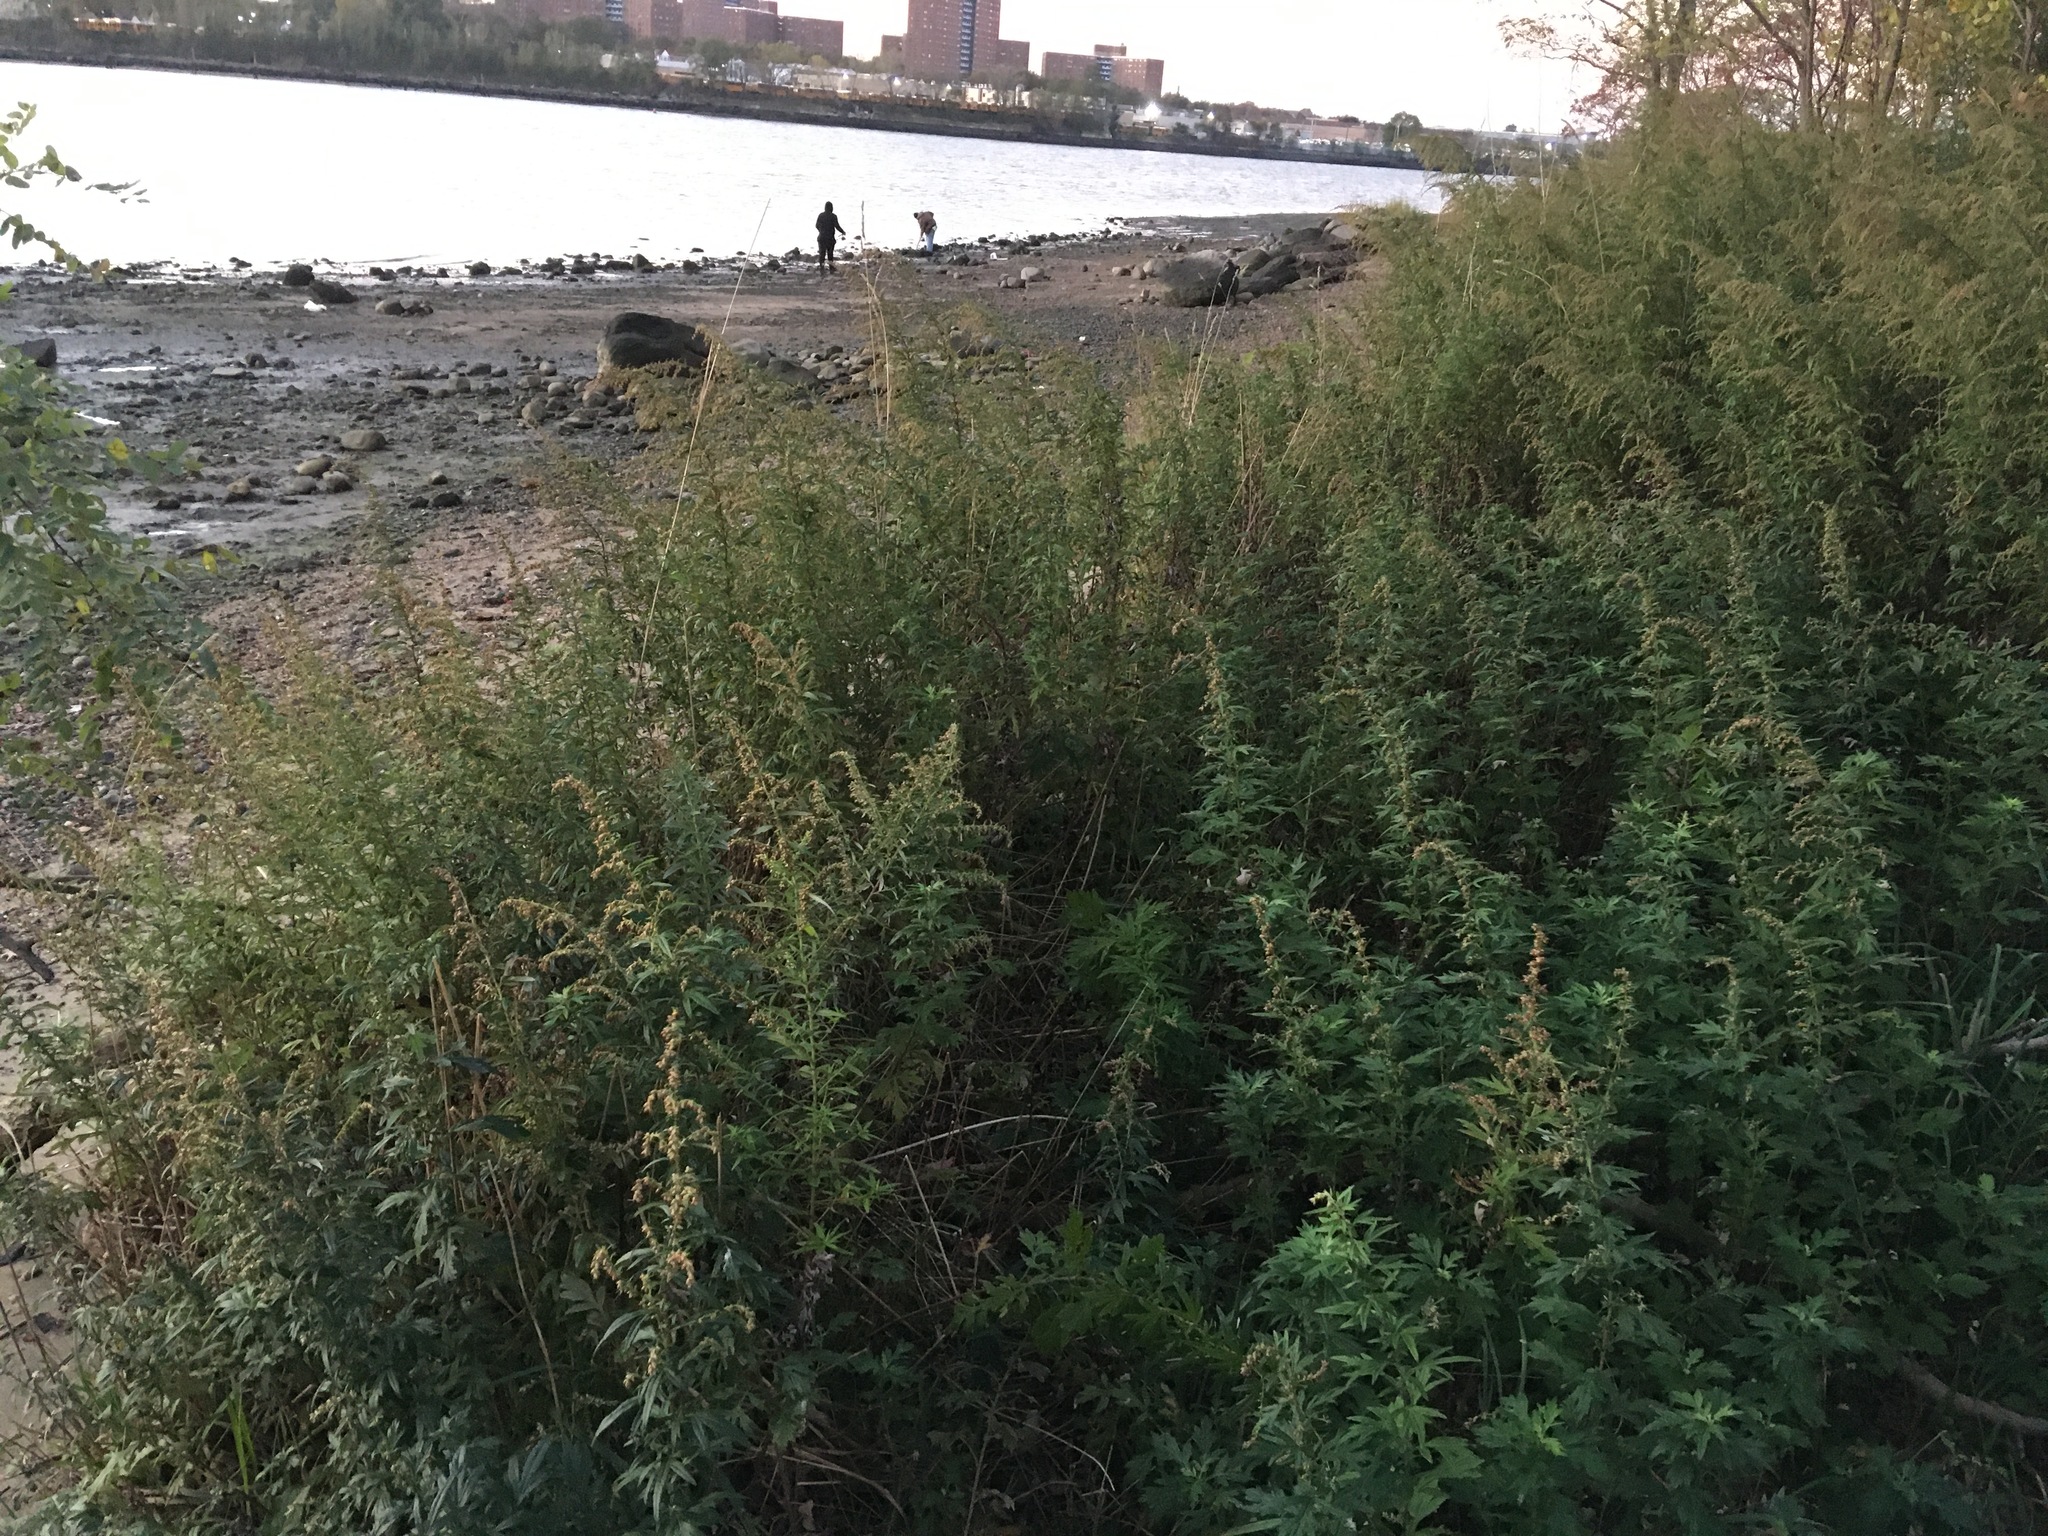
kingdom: Plantae
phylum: Tracheophyta
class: Magnoliopsida
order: Asterales
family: Asteraceae
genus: Artemisia
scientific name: Artemisia vulgaris
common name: Mugwort
